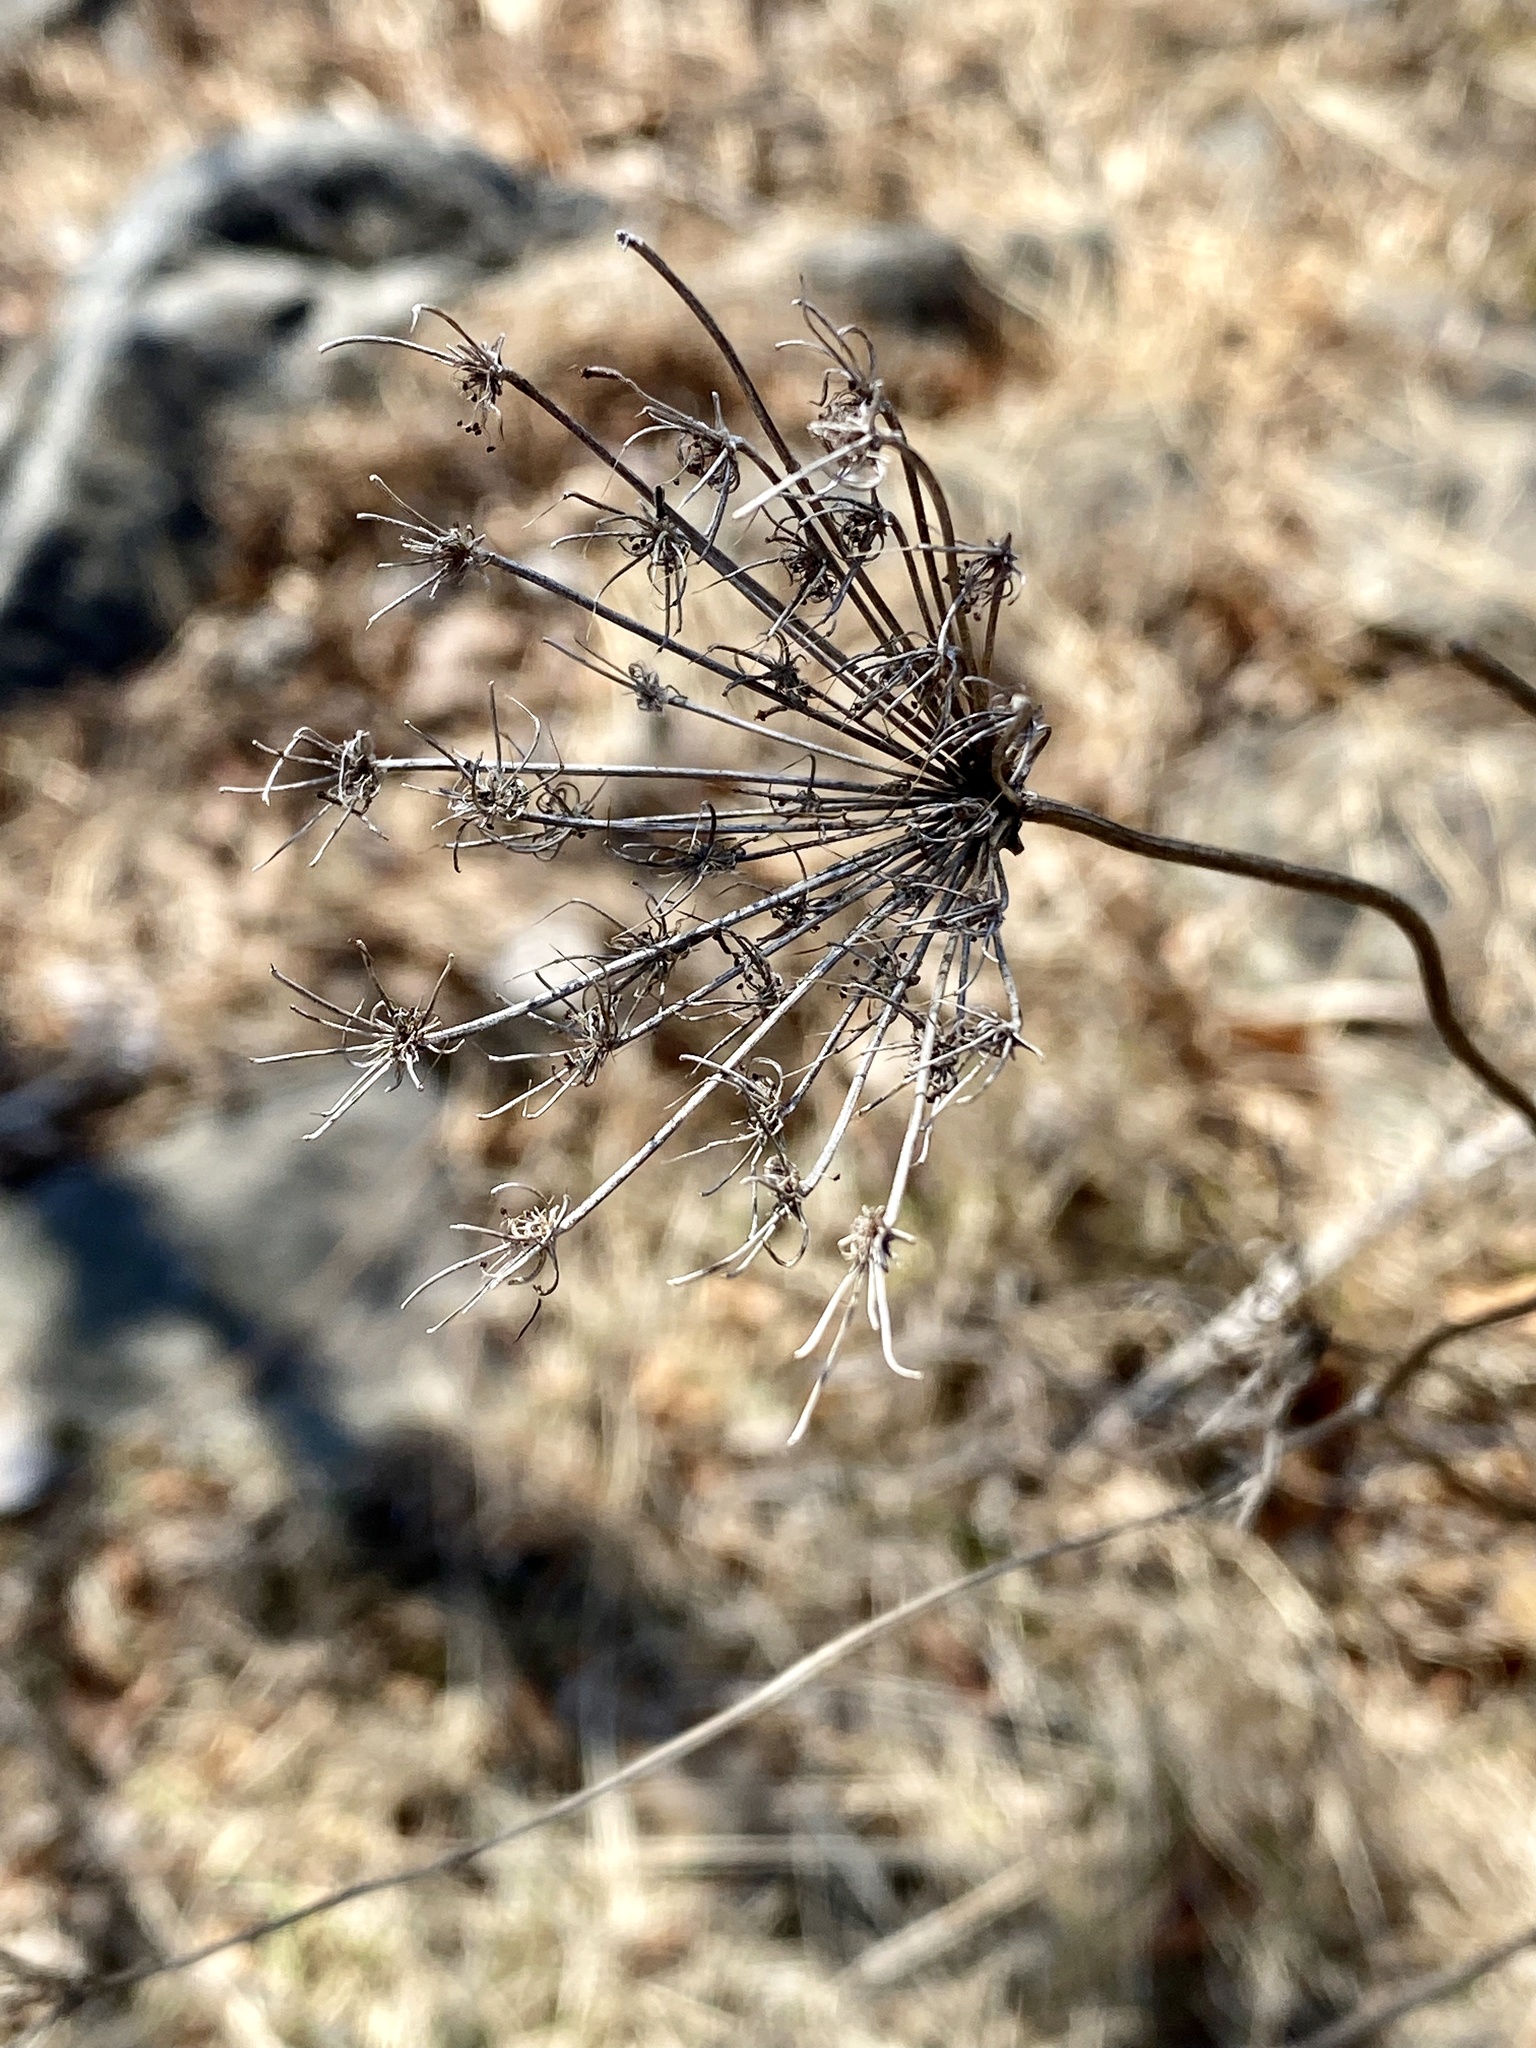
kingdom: Plantae
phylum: Tracheophyta
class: Magnoliopsida
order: Apiales
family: Apiaceae
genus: Daucus
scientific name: Daucus carota
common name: Wild carrot
